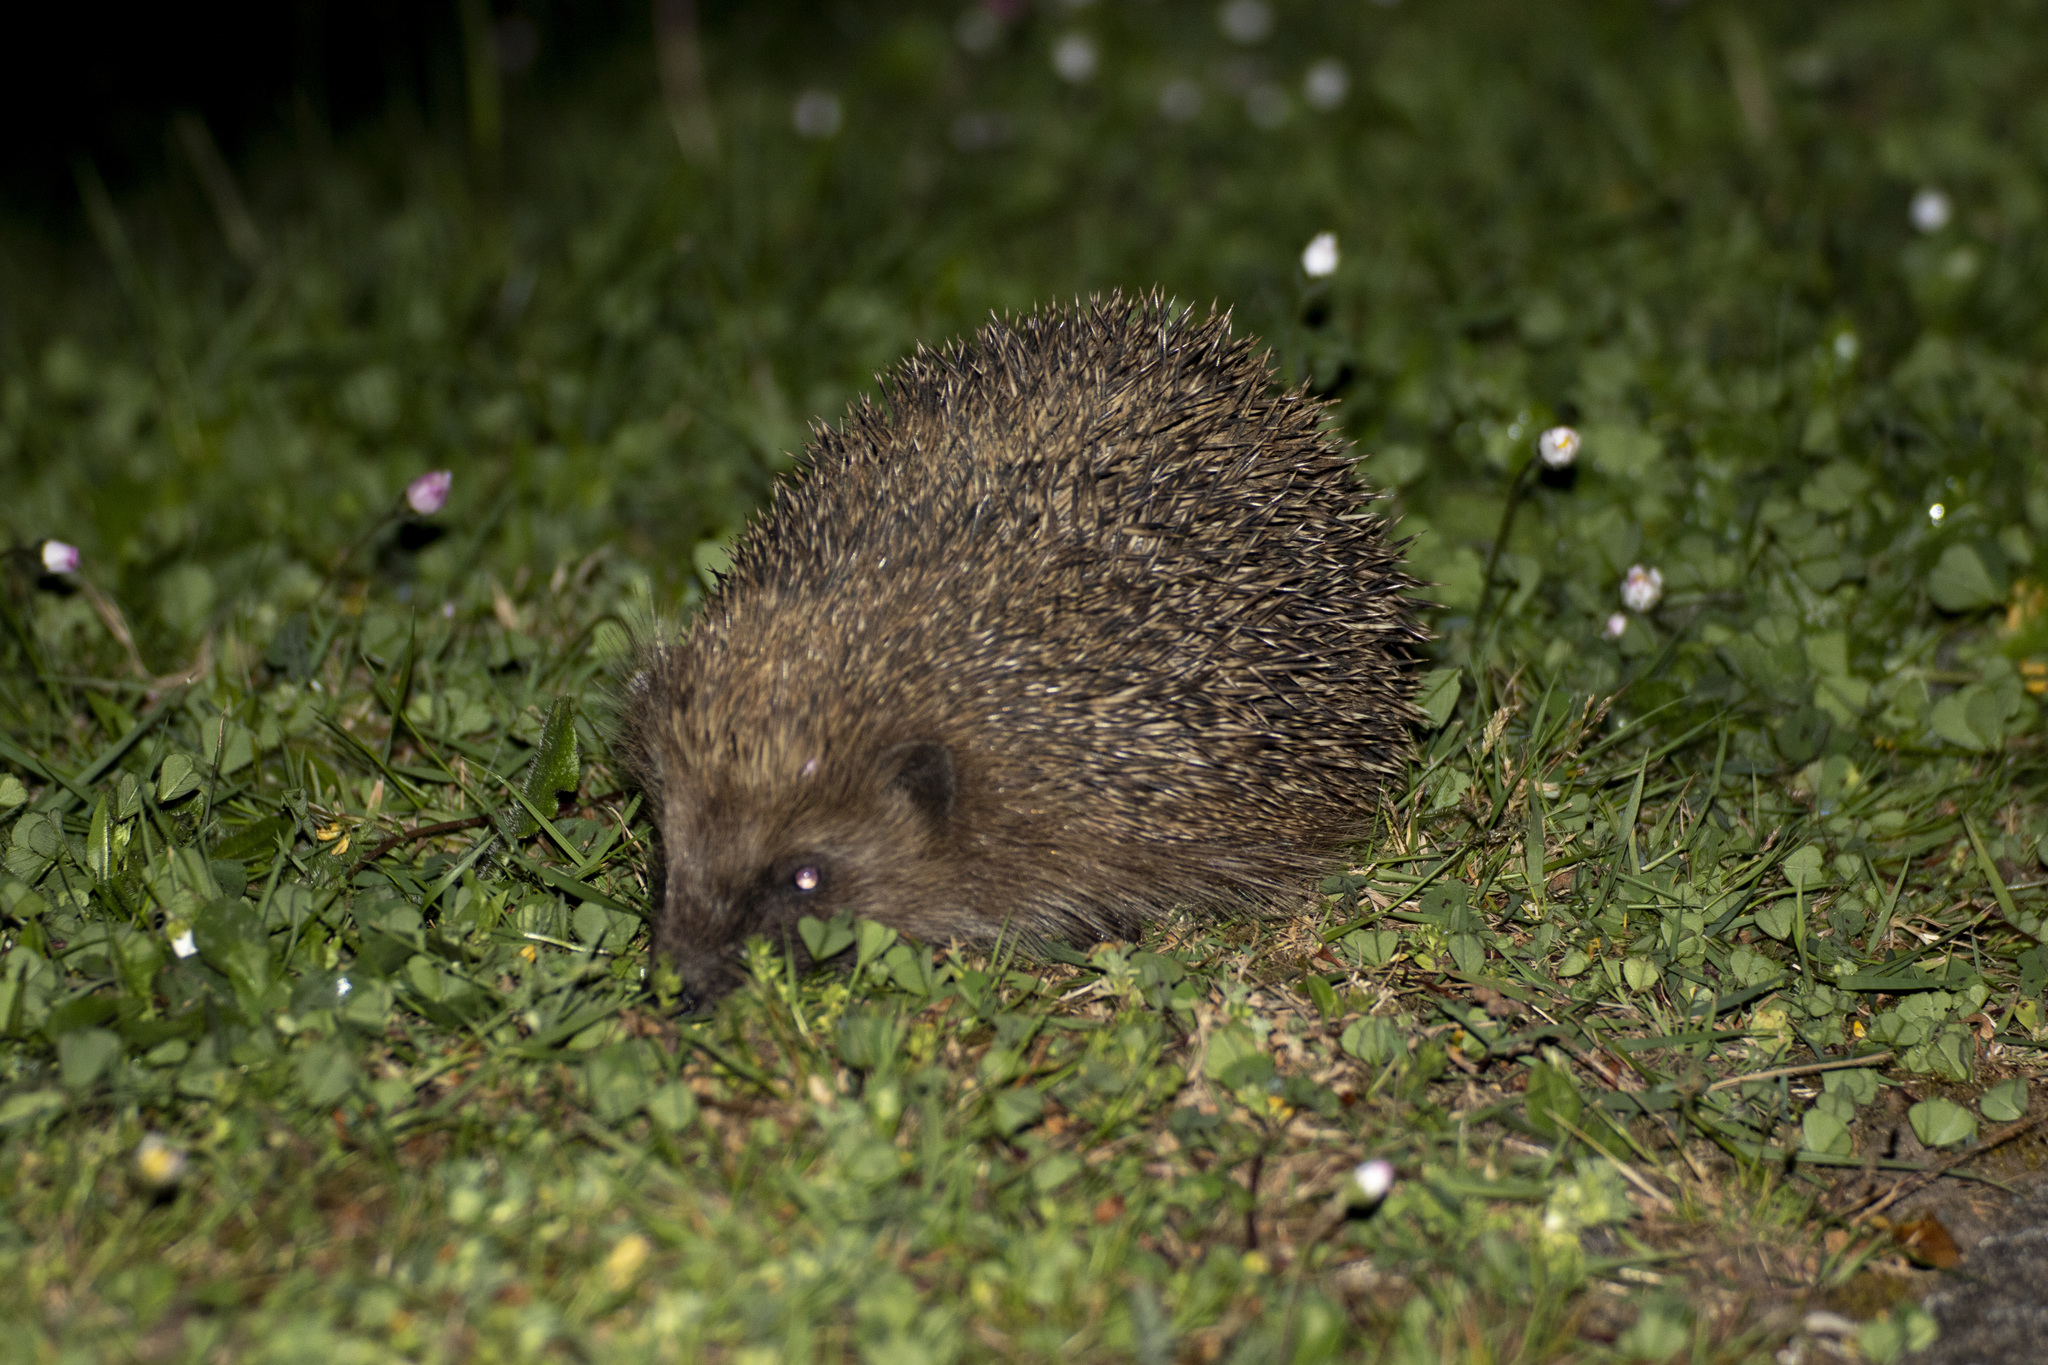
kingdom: Animalia
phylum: Chordata
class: Mammalia
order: Erinaceomorpha
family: Erinaceidae
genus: Erinaceus
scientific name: Erinaceus europaeus
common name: West european hedgehog
